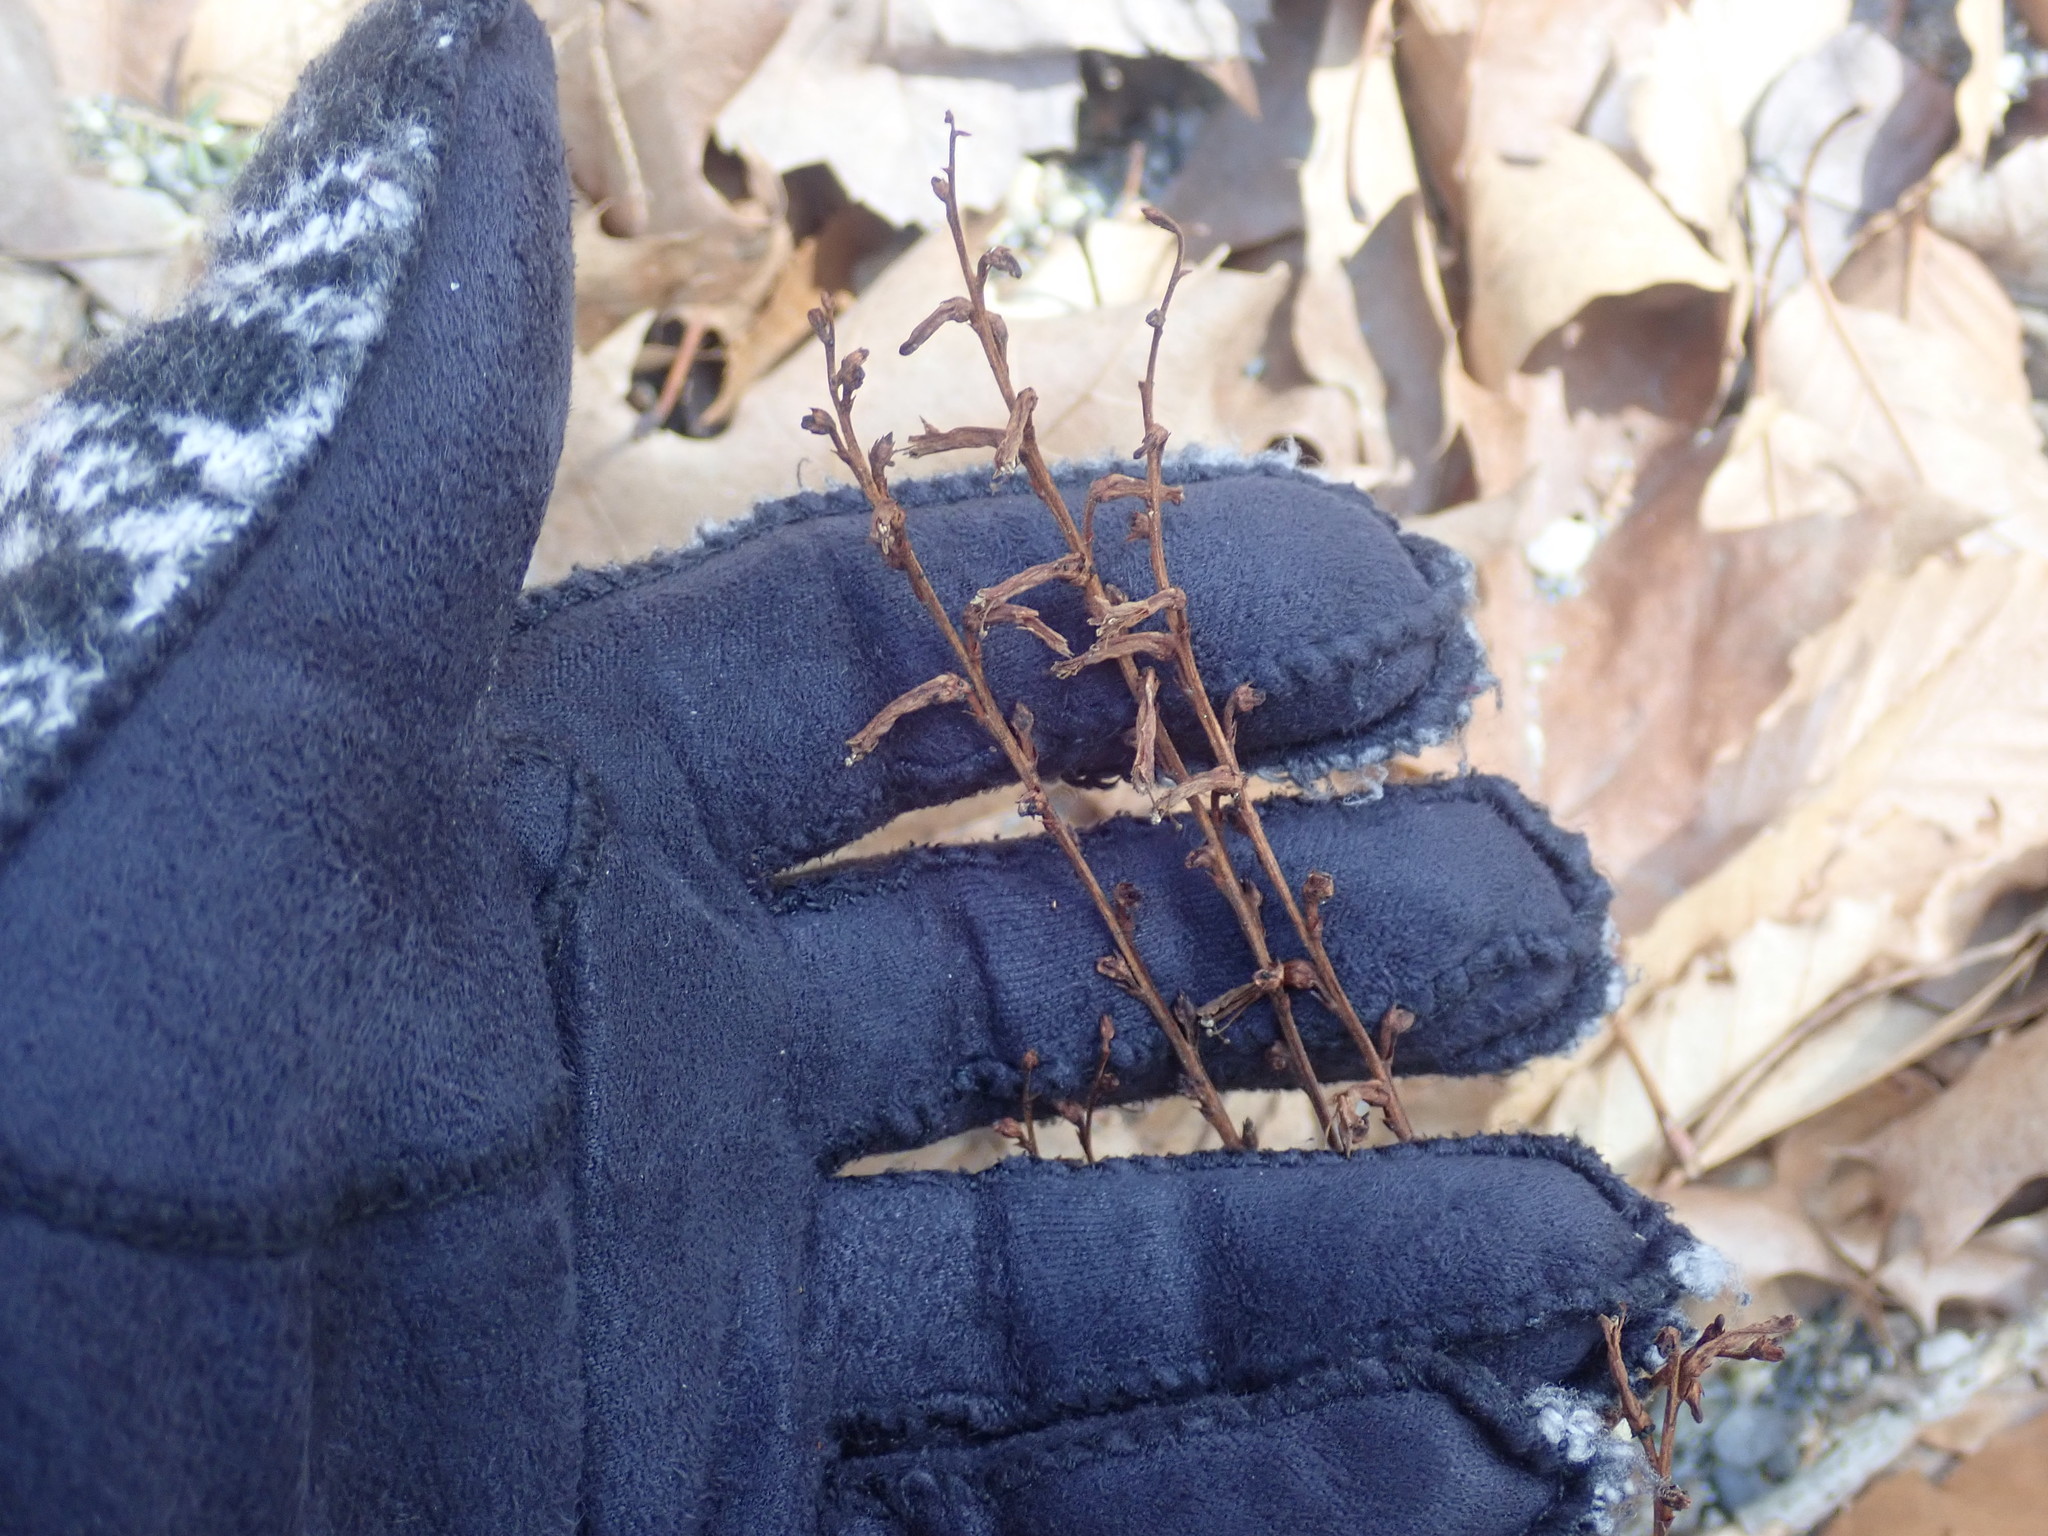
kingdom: Plantae
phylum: Tracheophyta
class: Magnoliopsida
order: Lamiales
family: Orobanchaceae
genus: Epifagus
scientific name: Epifagus virginiana
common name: Beechdrops
